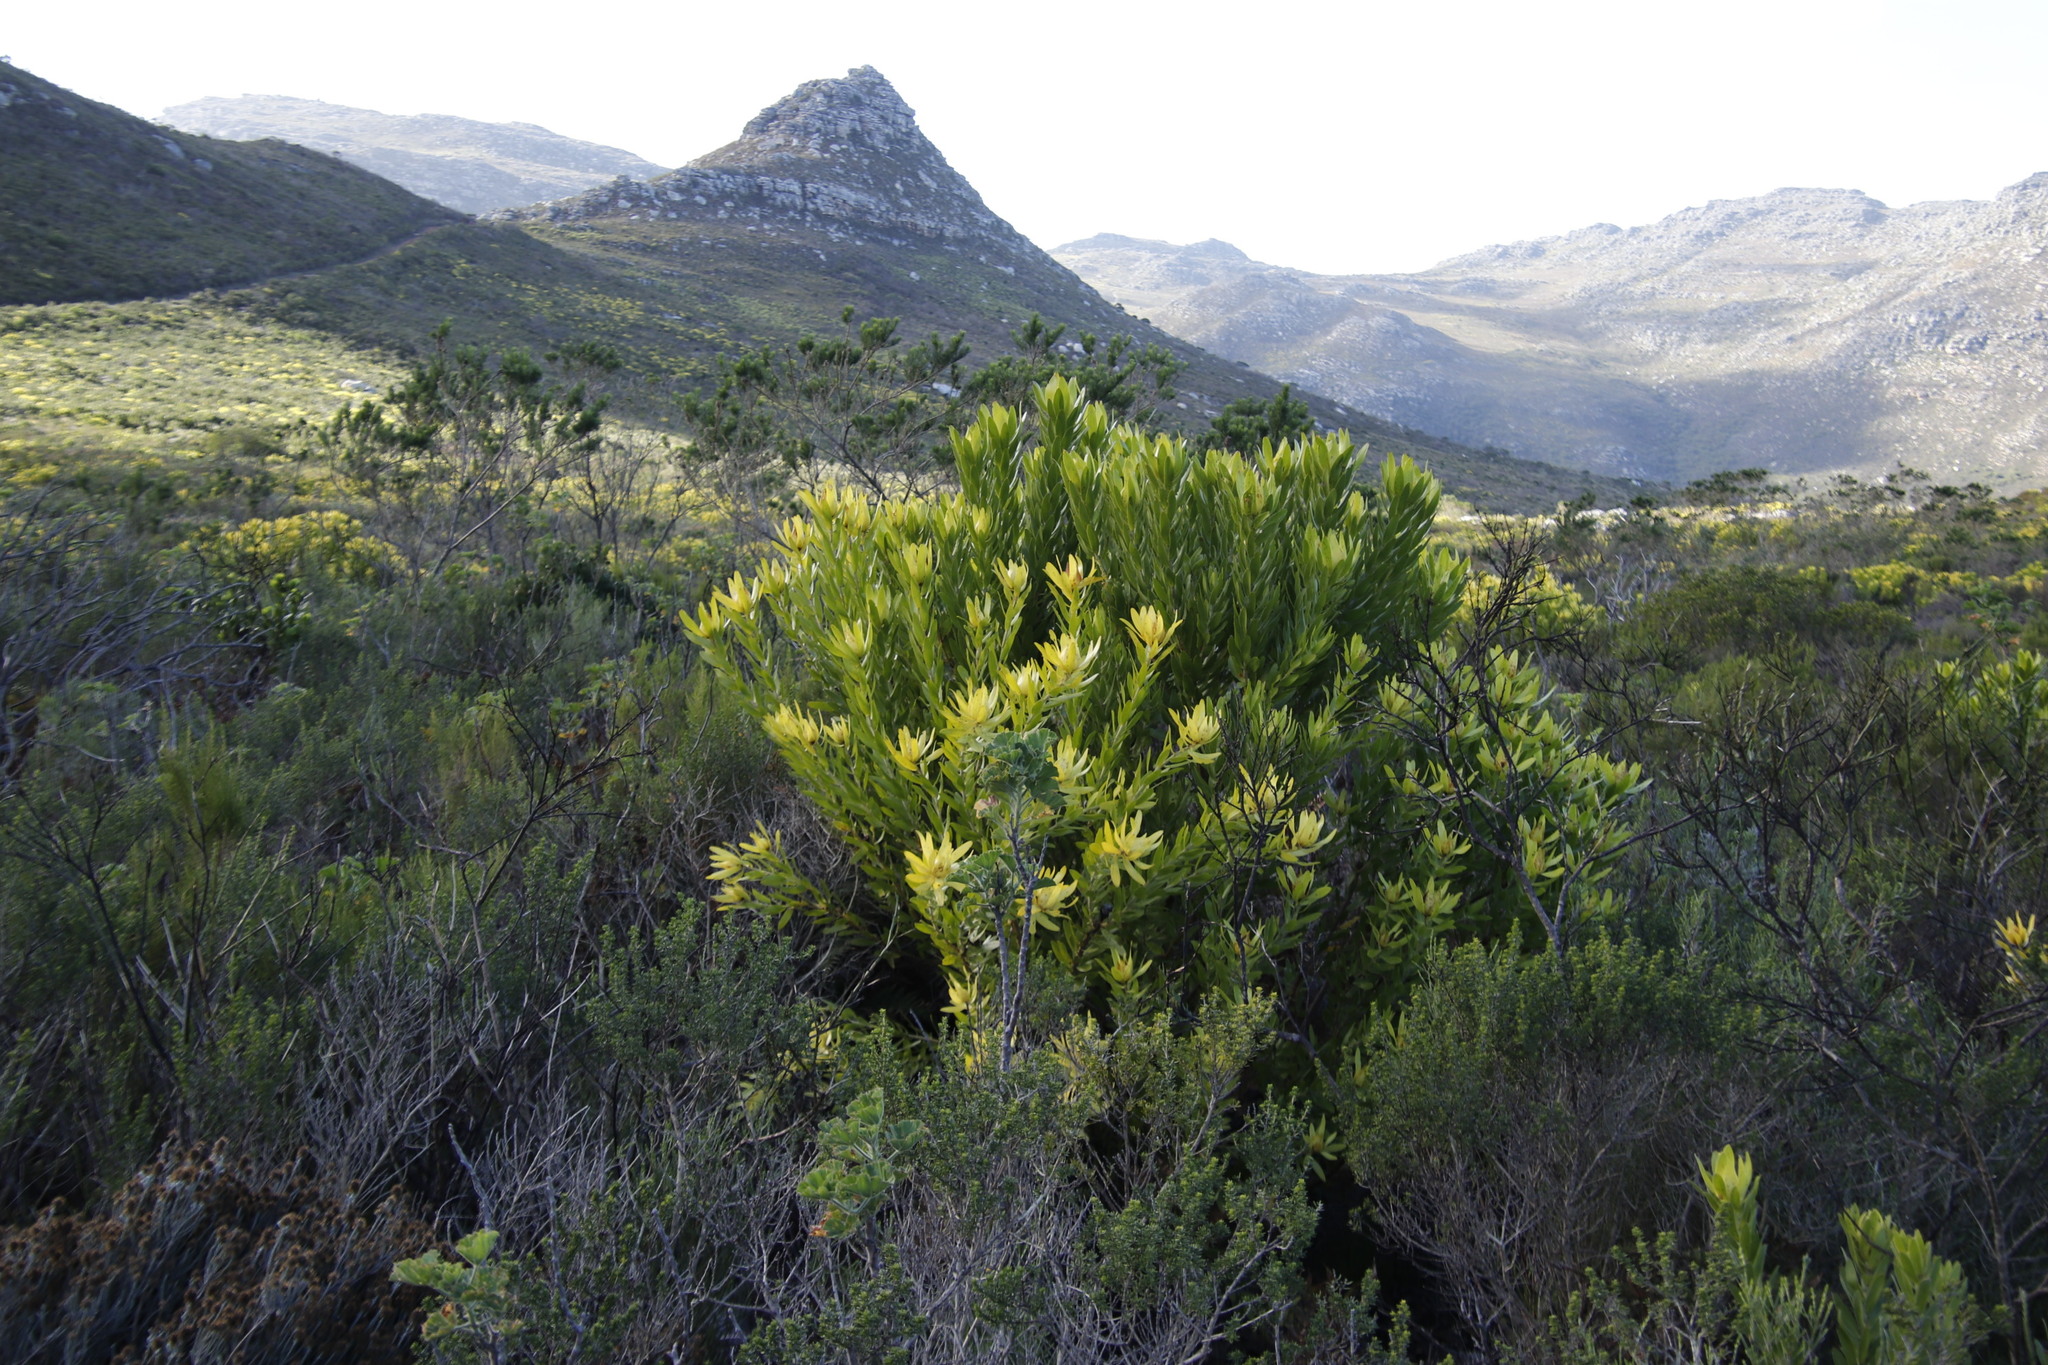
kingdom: Plantae
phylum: Tracheophyta
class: Magnoliopsida
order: Proteales
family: Proteaceae
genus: Leucadendron
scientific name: Leucadendron laureolum
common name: Golden sunshinebush
